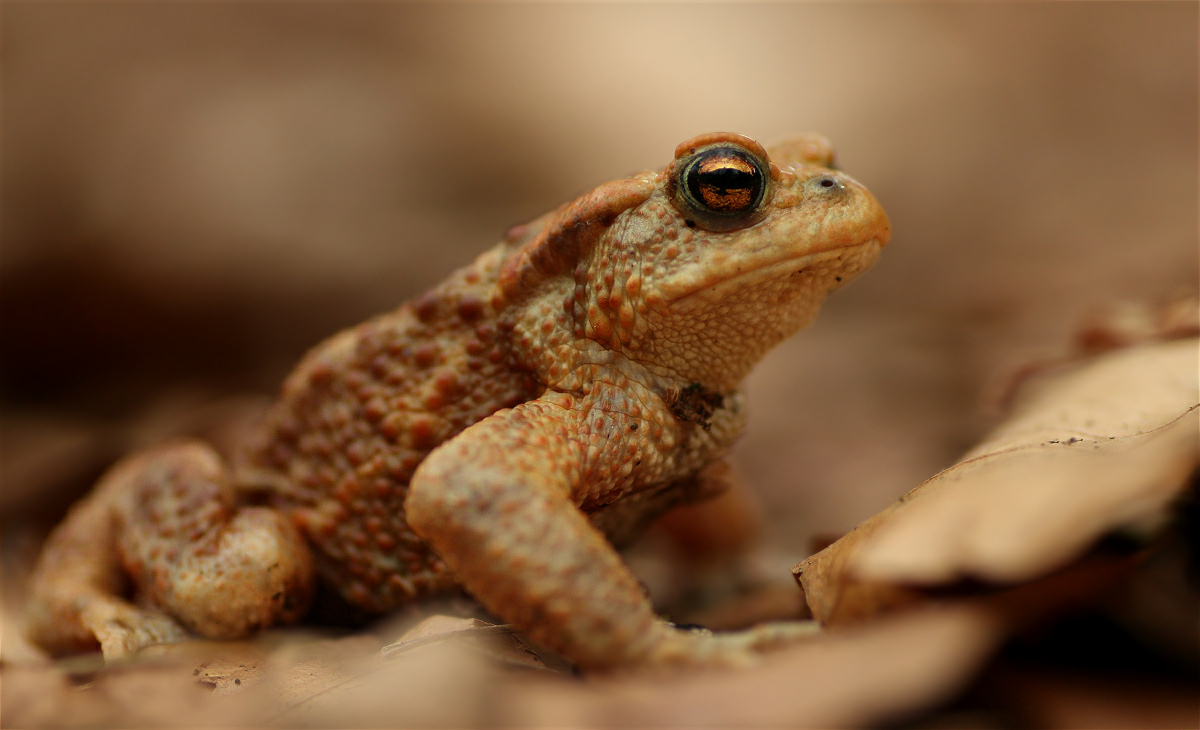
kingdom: Animalia
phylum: Chordata
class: Amphibia
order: Anura
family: Bufonidae
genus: Bufo
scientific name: Bufo bufo
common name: Common toad
